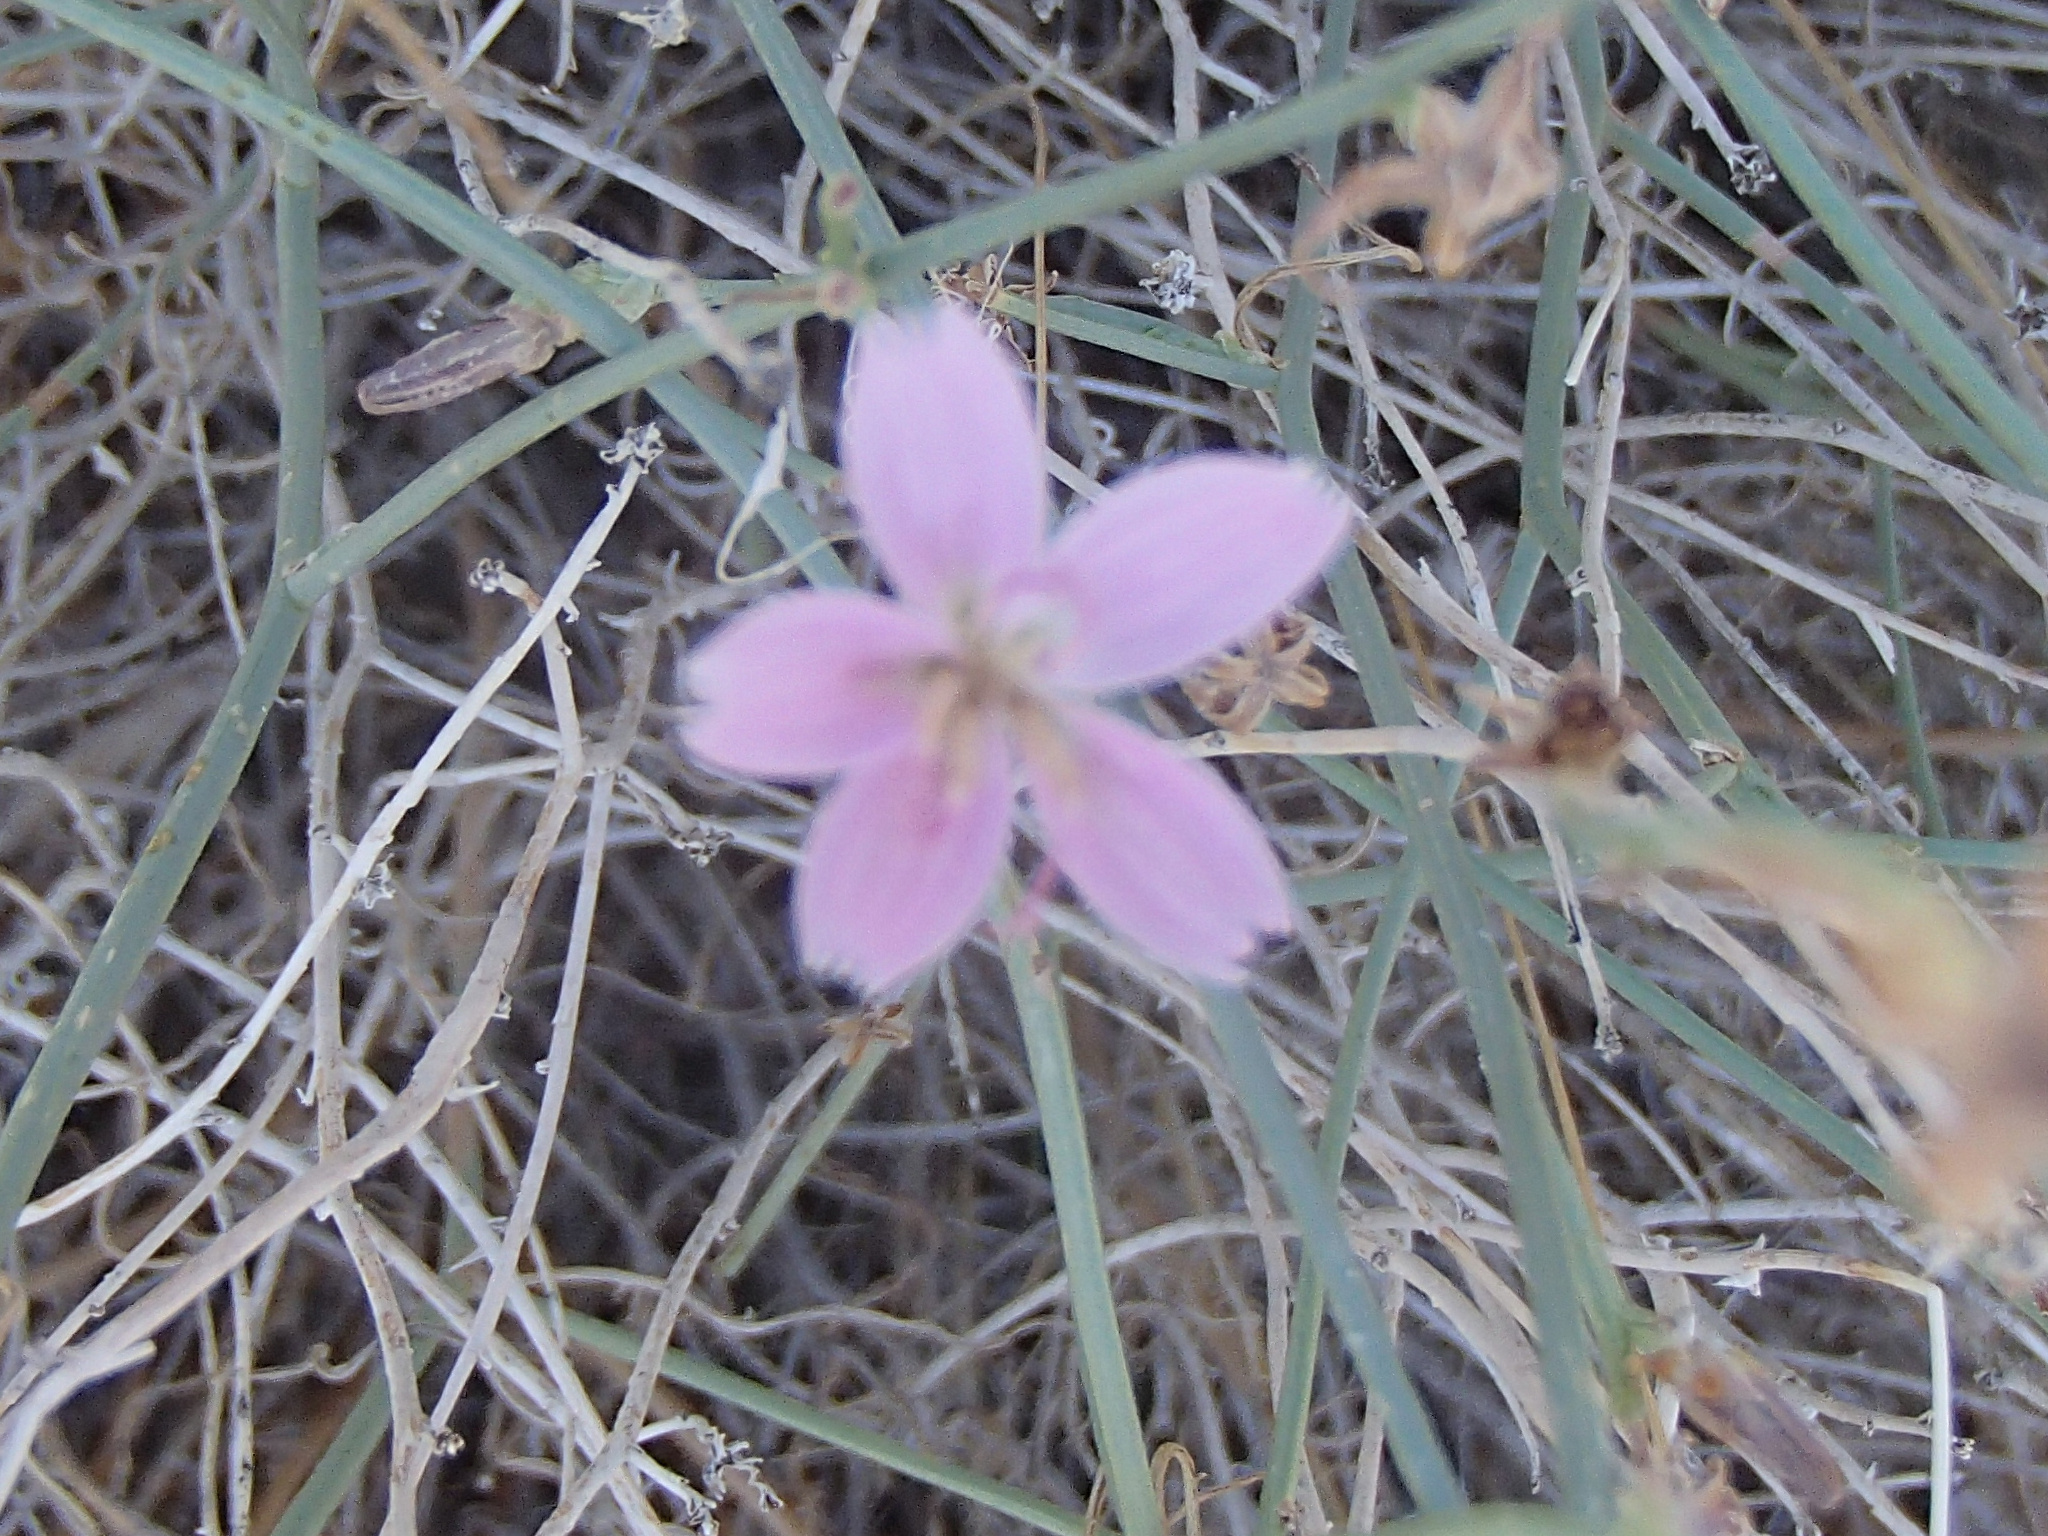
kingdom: Plantae
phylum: Tracheophyta
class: Magnoliopsida
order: Asterales
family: Asteraceae
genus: Stephanomeria
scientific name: Stephanomeria tenuifolia
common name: Slender wirelettuce
